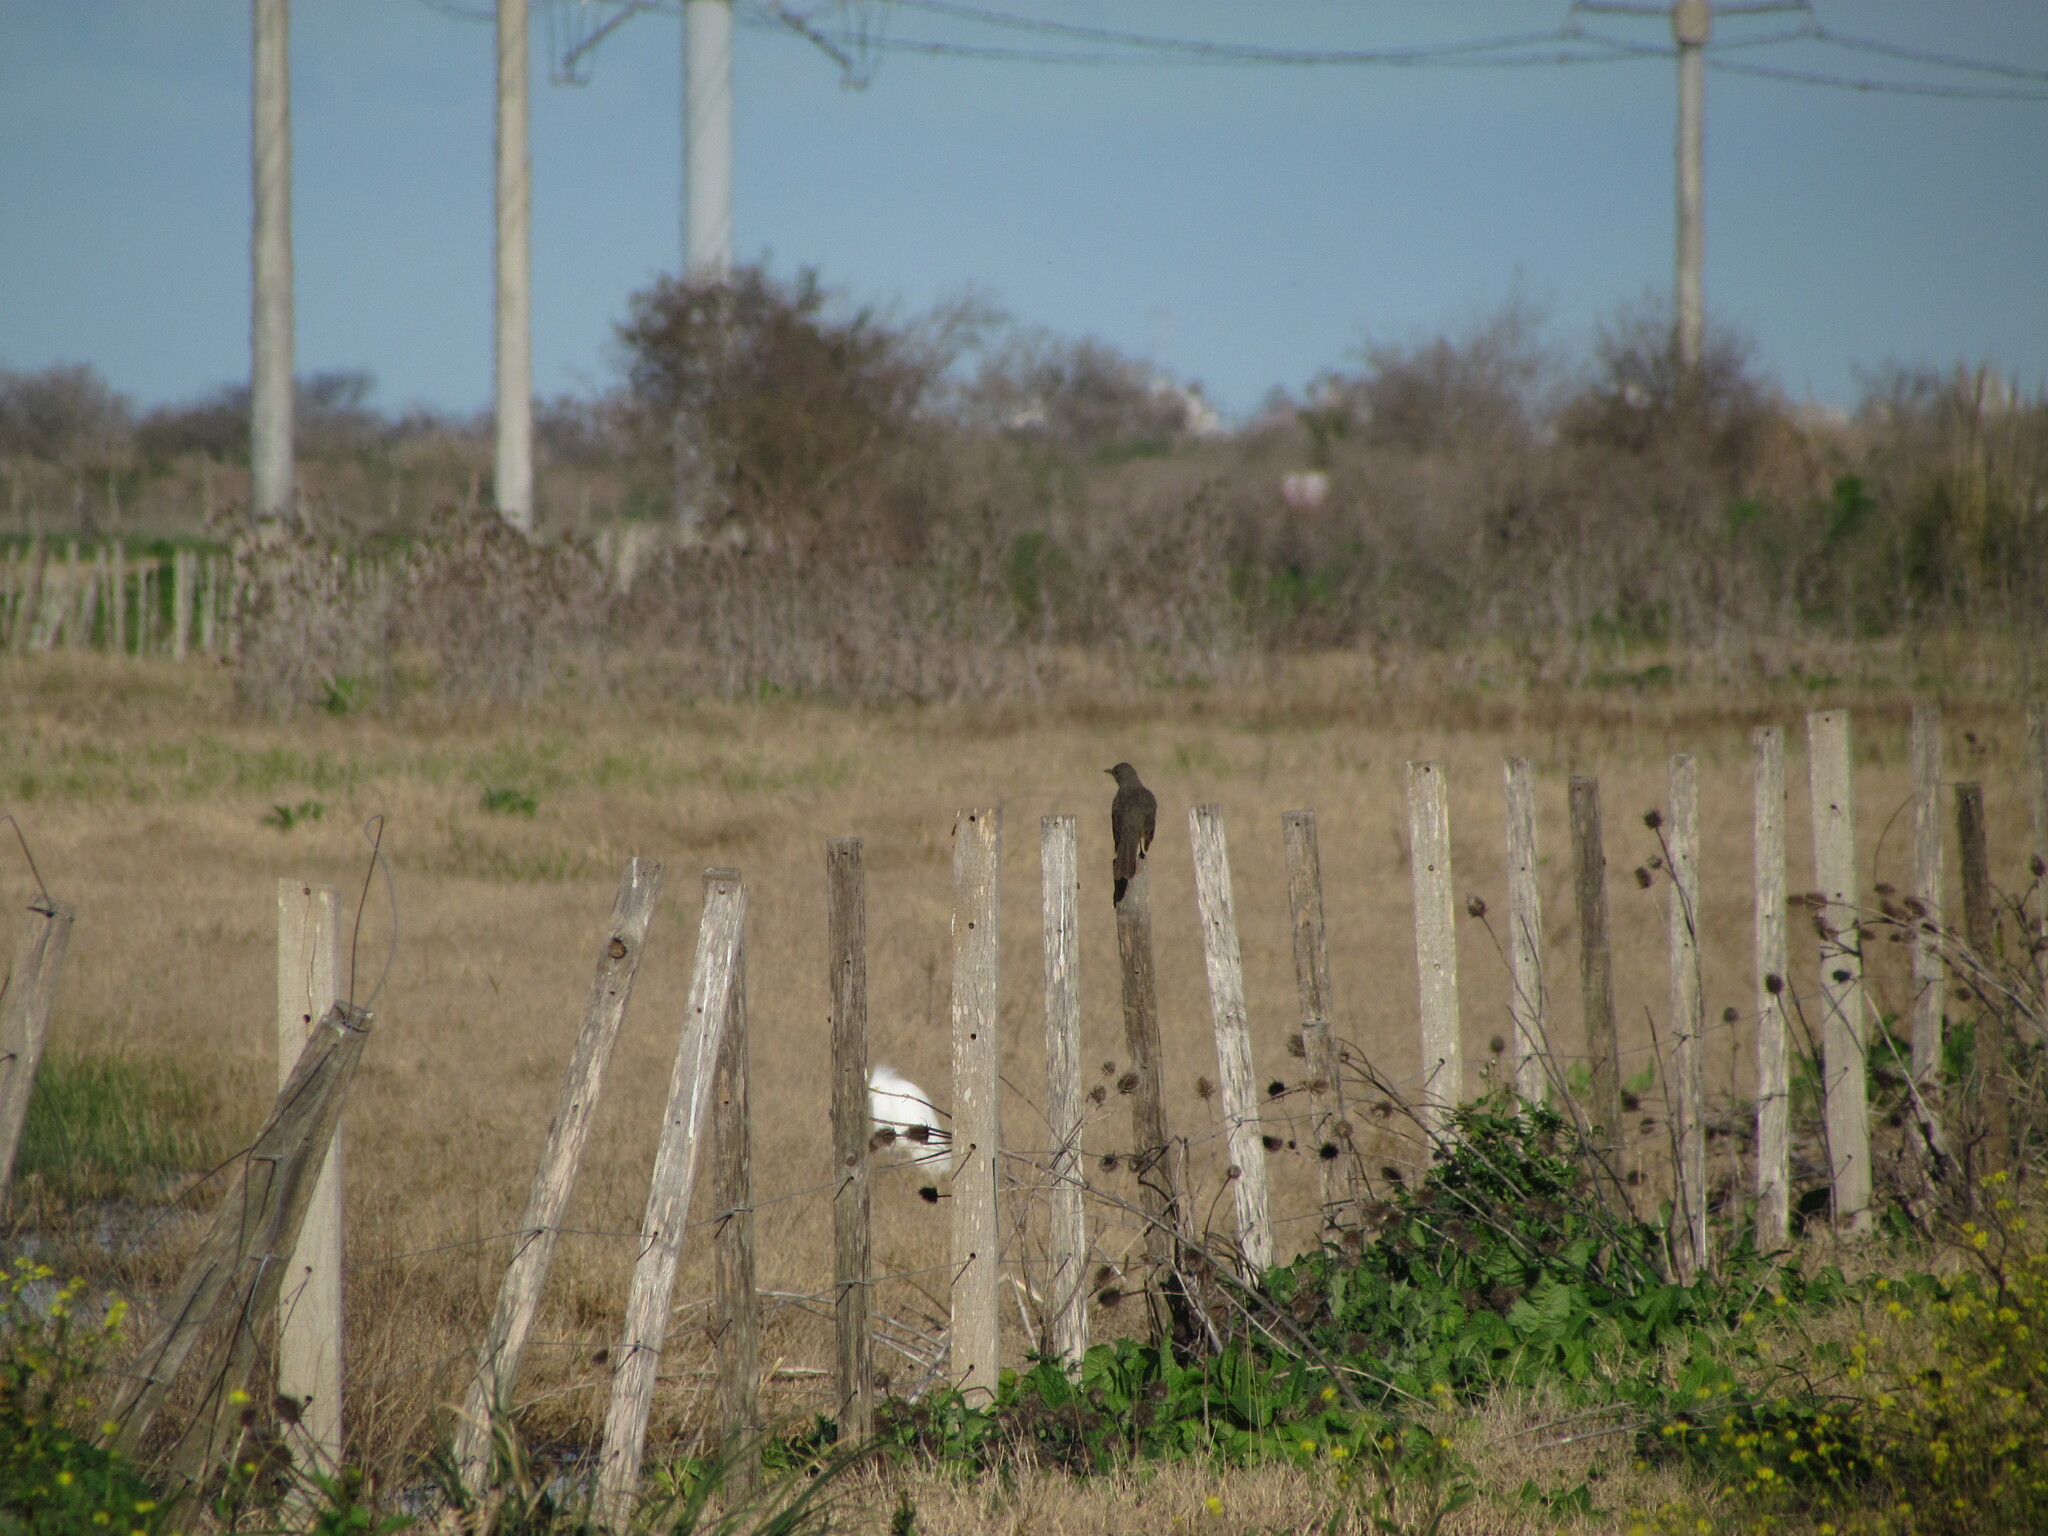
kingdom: Animalia
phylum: Chordata
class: Aves
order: Passeriformes
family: Turdidae
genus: Turdus
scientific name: Turdus rufiventris
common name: Rufous-bellied thrush
